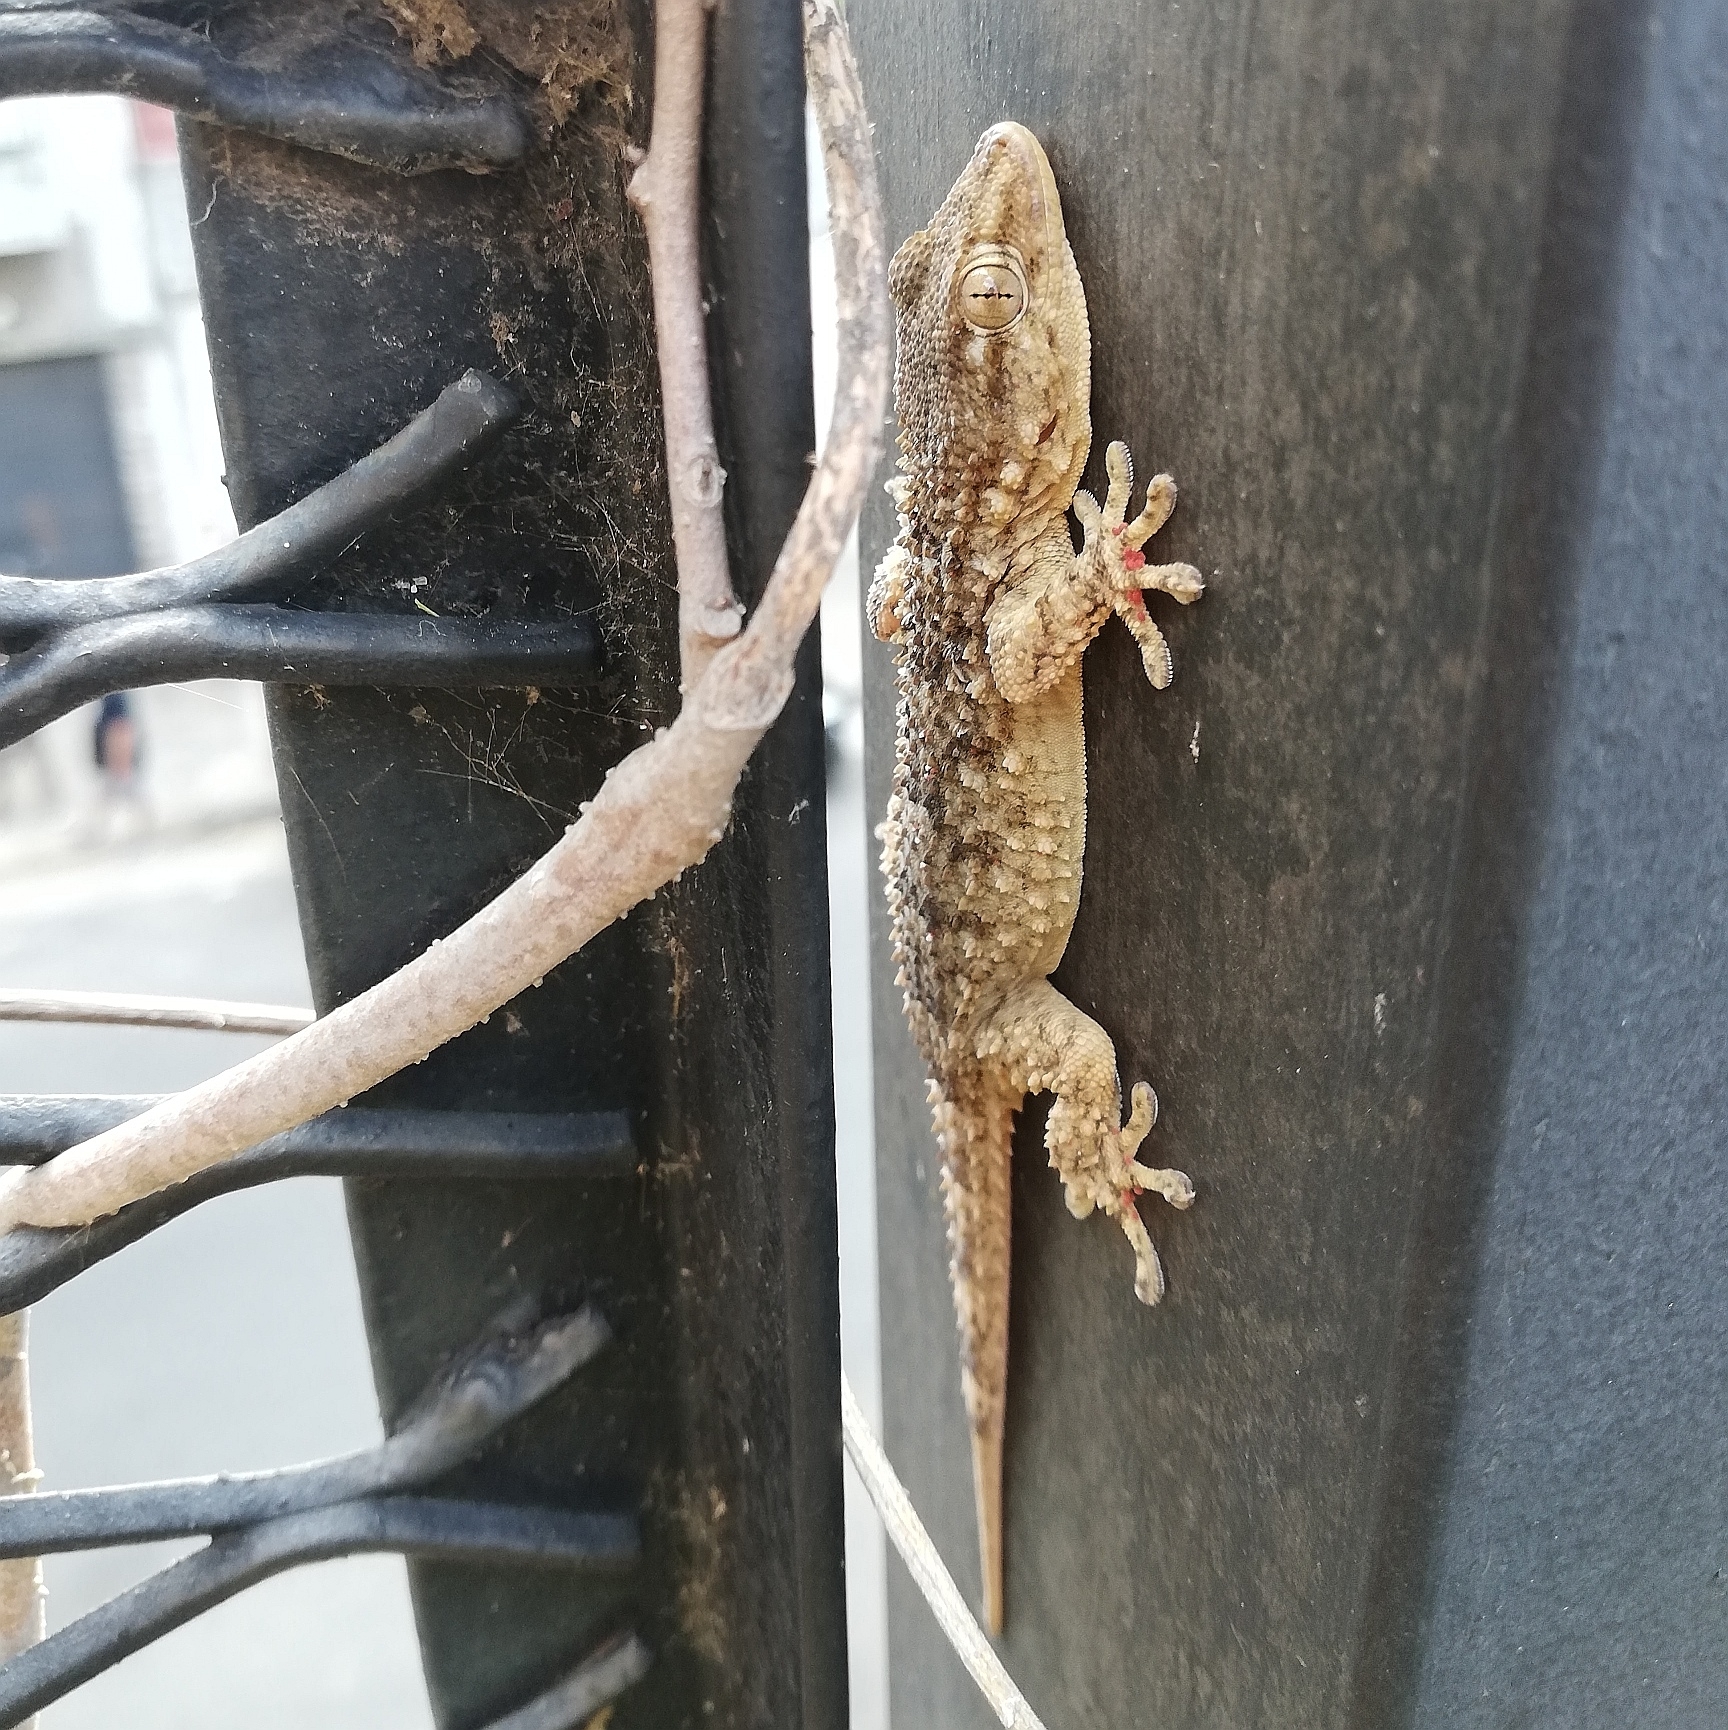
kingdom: Animalia
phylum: Chordata
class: Squamata
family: Phyllodactylidae
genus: Tarentola
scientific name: Tarentola mauritanica
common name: Moorish gecko
